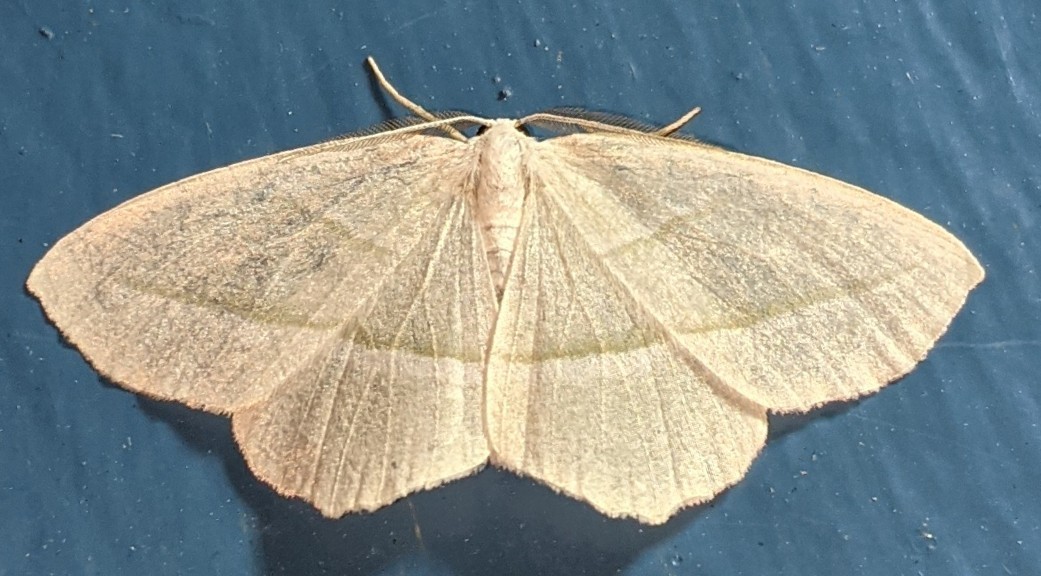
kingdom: Animalia
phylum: Arthropoda
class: Insecta
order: Lepidoptera
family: Geometridae
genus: Campaea
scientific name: Campaea perlata
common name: Fringed looper
